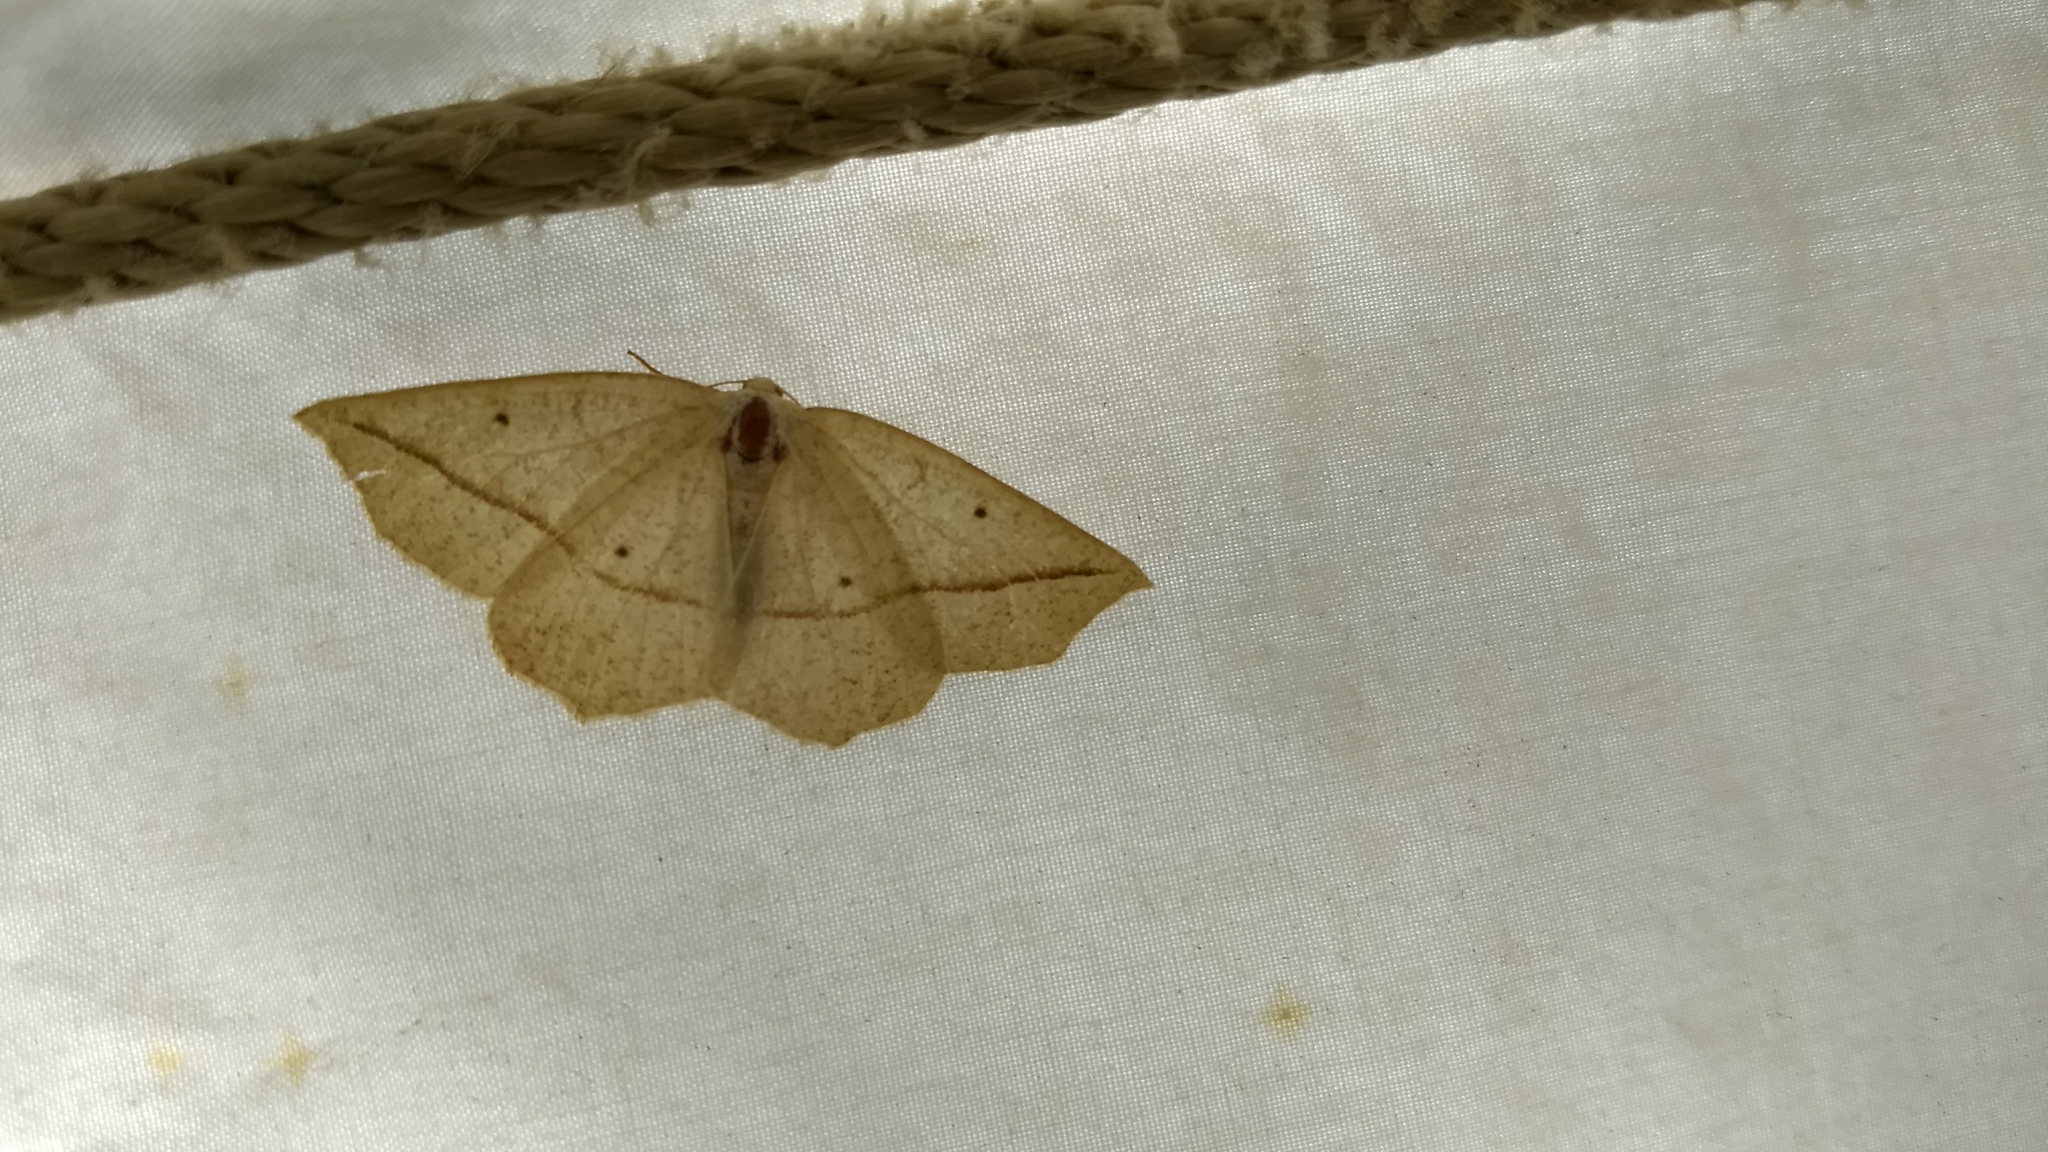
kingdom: Animalia
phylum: Arthropoda
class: Insecta
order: Lepidoptera
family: Geometridae
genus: Eusarca
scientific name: Eusarca confusaria
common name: Confused eusarca
